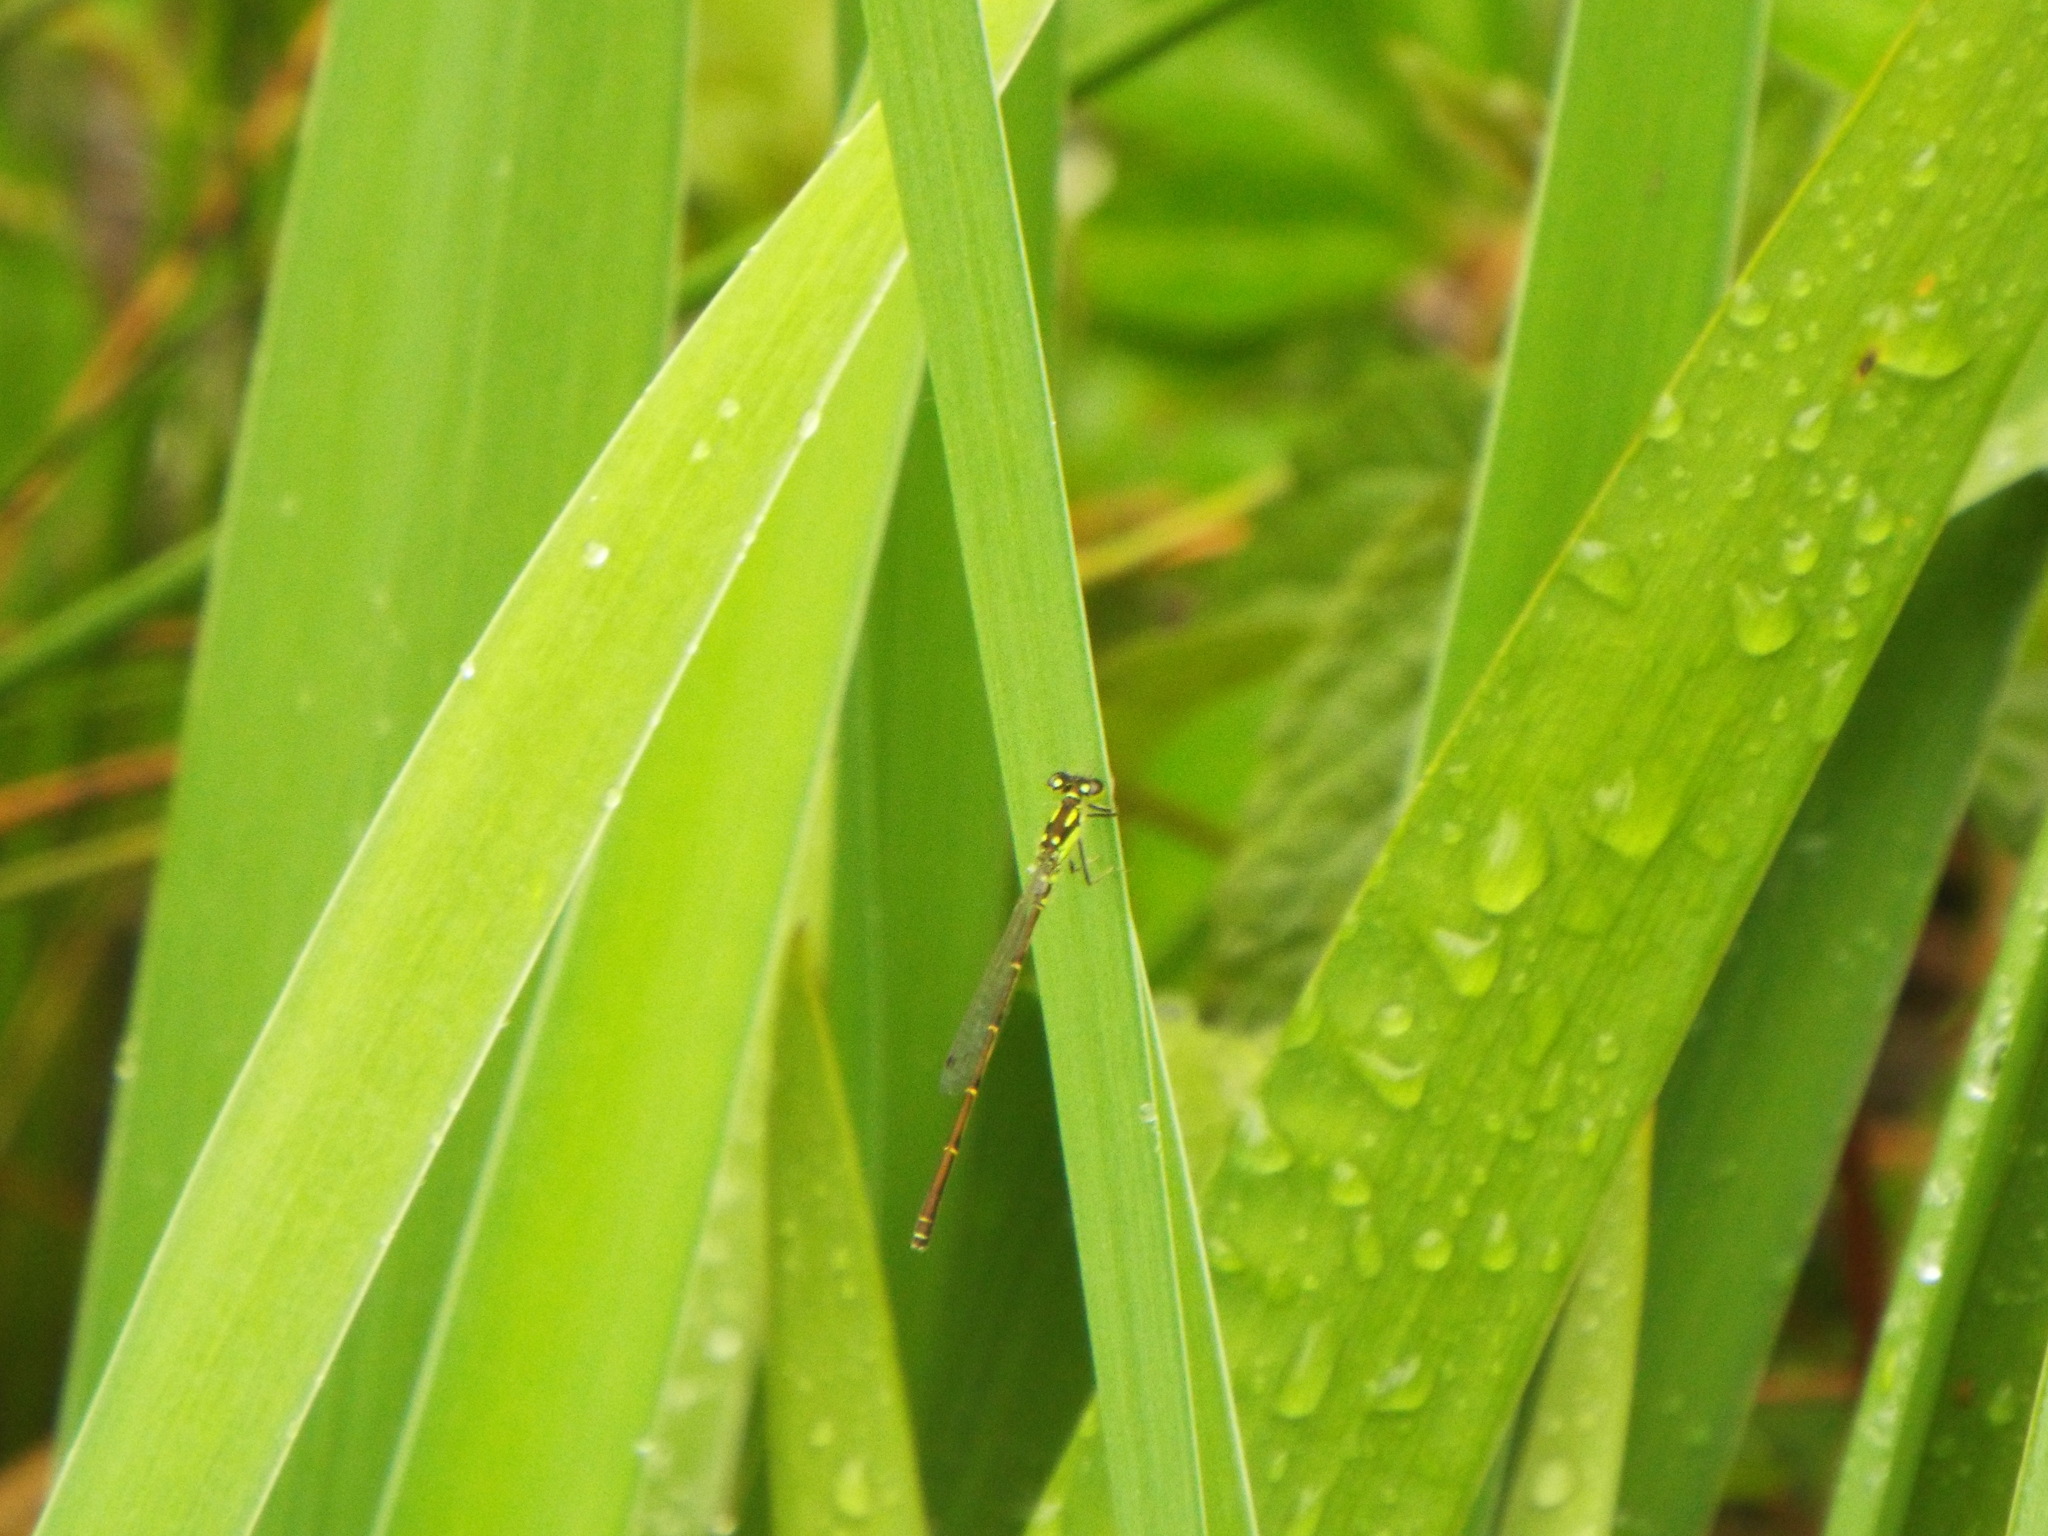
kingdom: Animalia
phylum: Arthropoda
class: Insecta
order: Odonata
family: Coenagrionidae
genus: Ischnura
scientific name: Ischnura posita
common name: Fragile forktail
